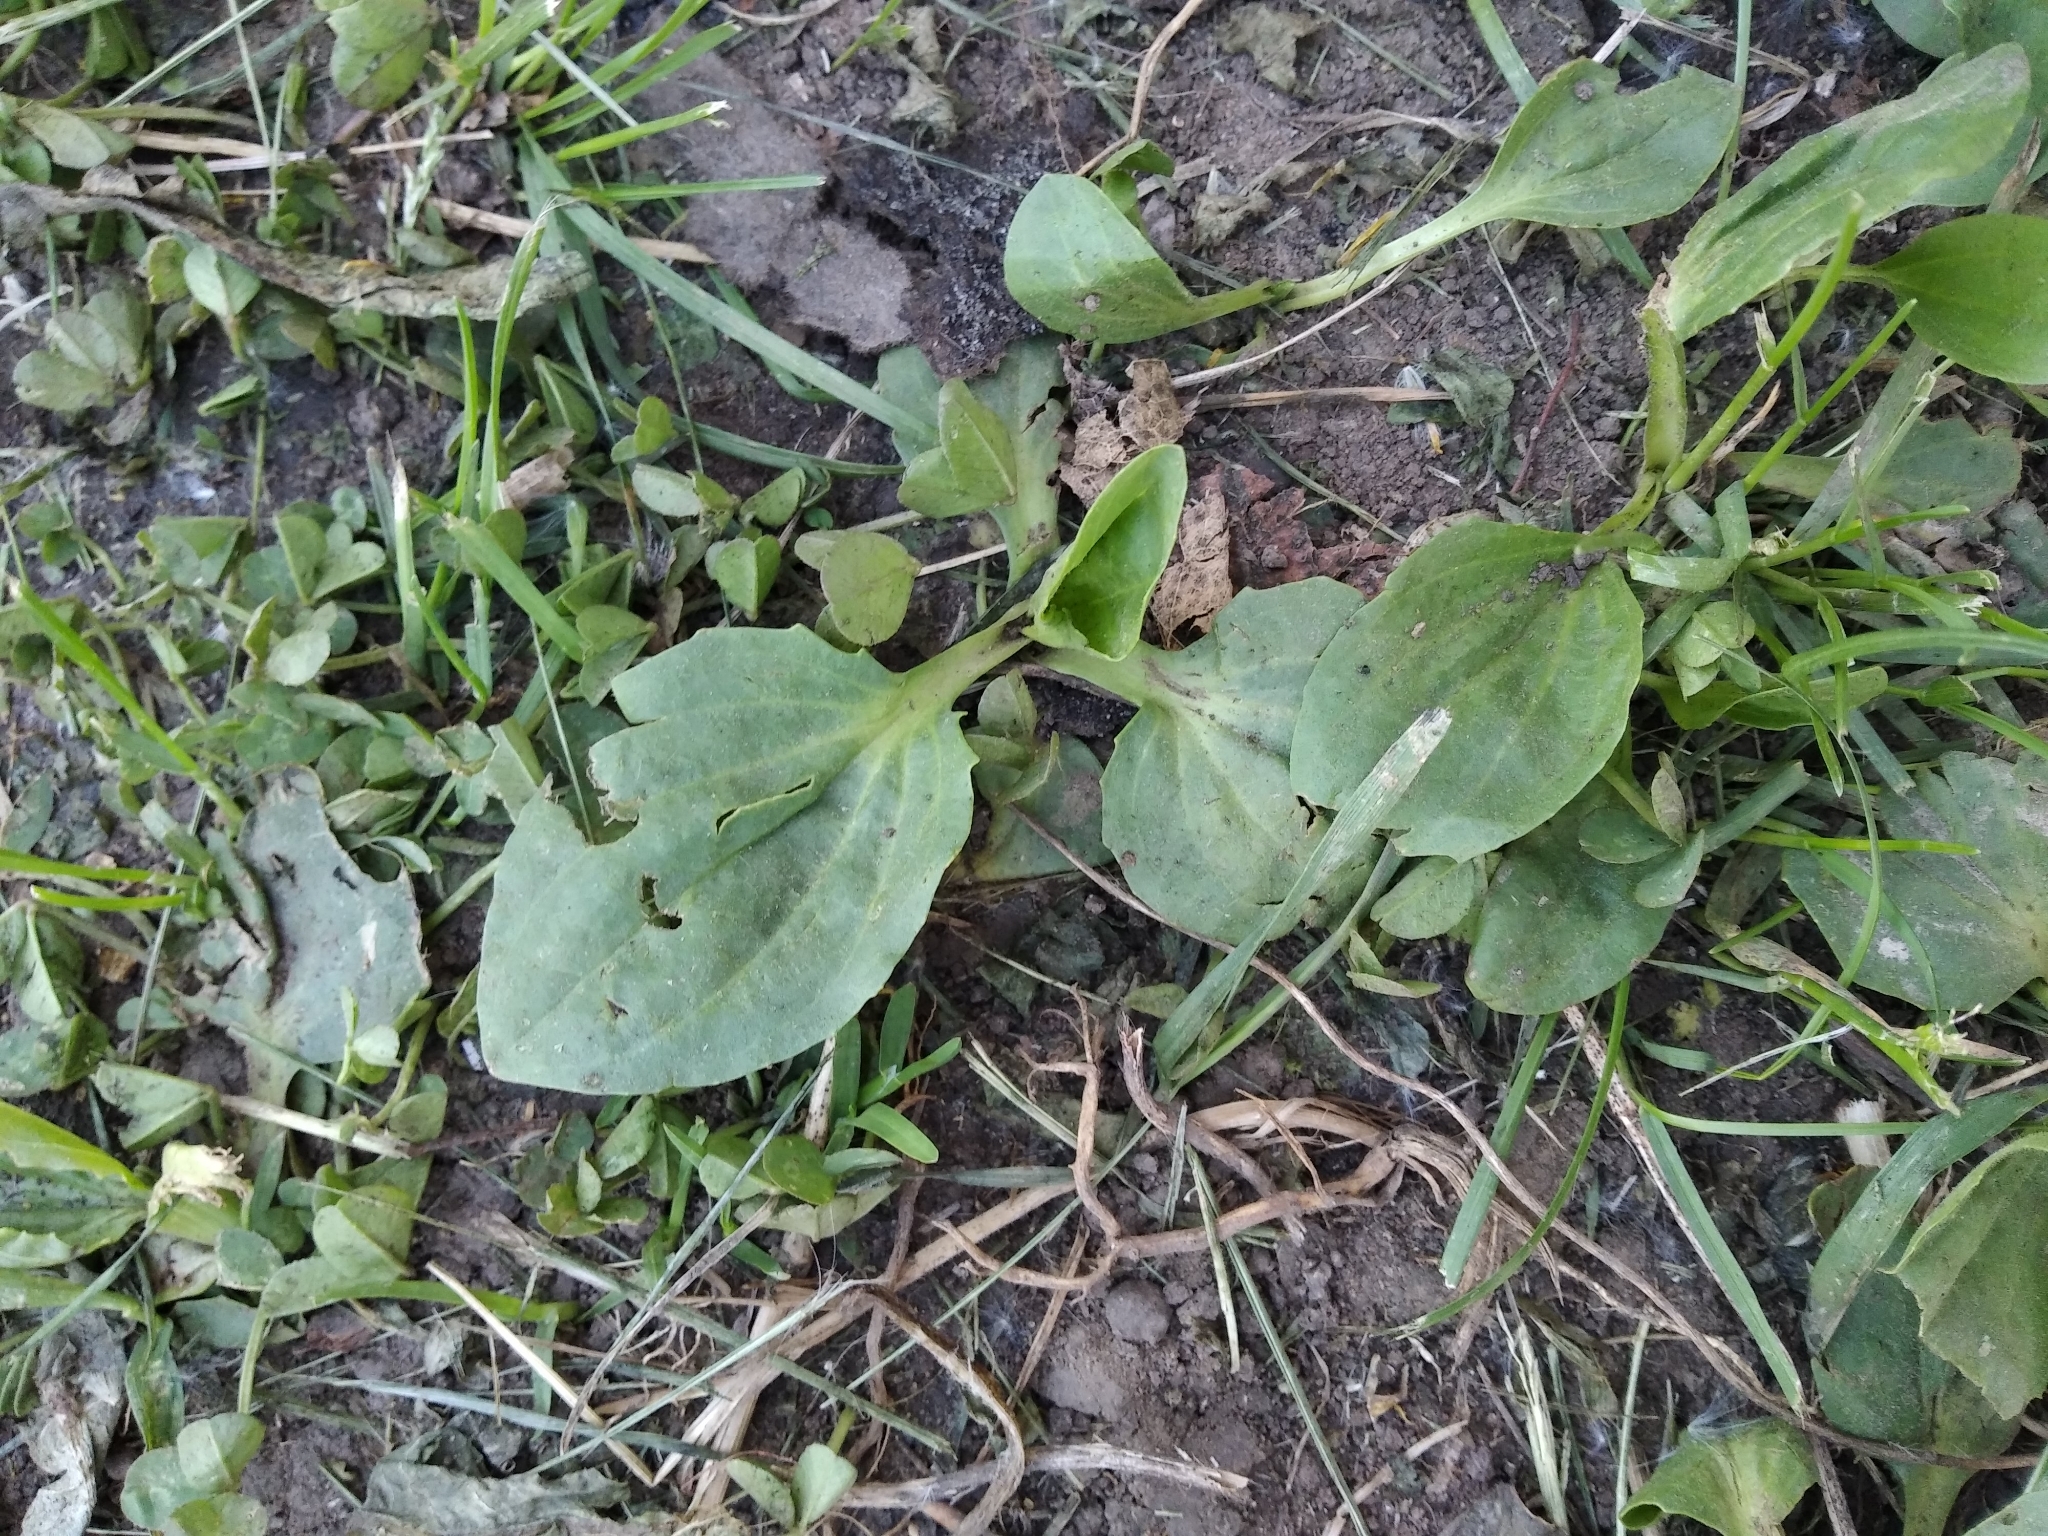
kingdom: Plantae
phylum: Tracheophyta
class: Magnoliopsida
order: Lamiales
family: Plantaginaceae
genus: Plantago
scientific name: Plantago major
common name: Common plantain
